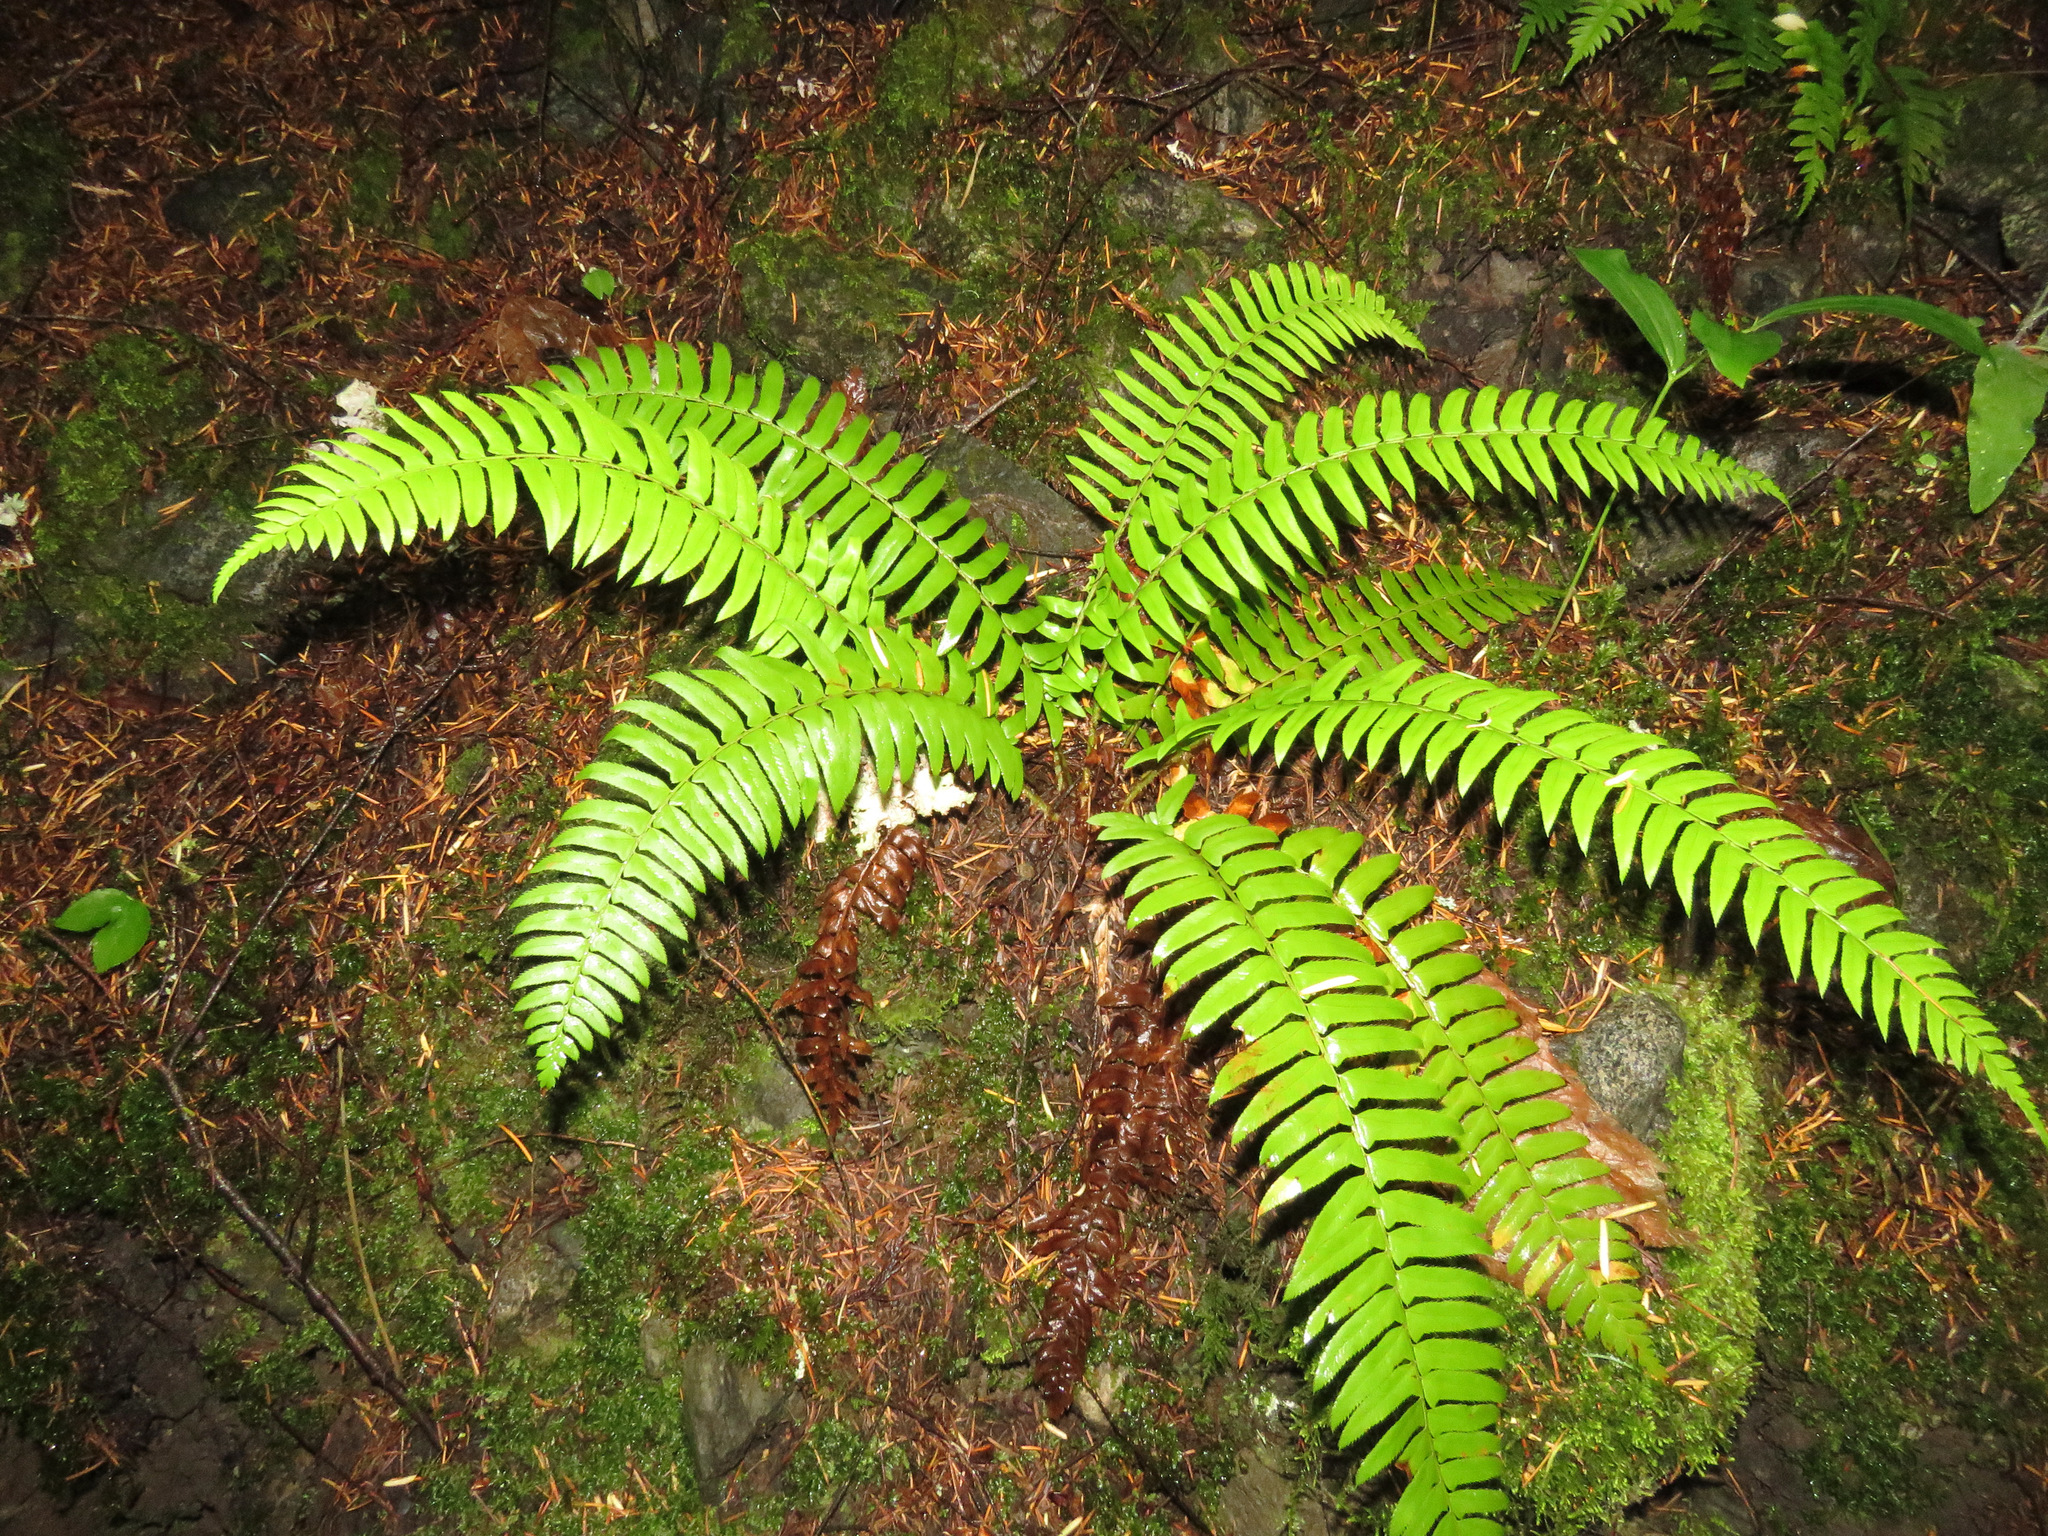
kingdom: Plantae
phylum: Tracheophyta
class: Polypodiopsida
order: Polypodiales
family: Dryopteridaceae
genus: Polystichum
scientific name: Polystichum munitum
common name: Western sword-fern
